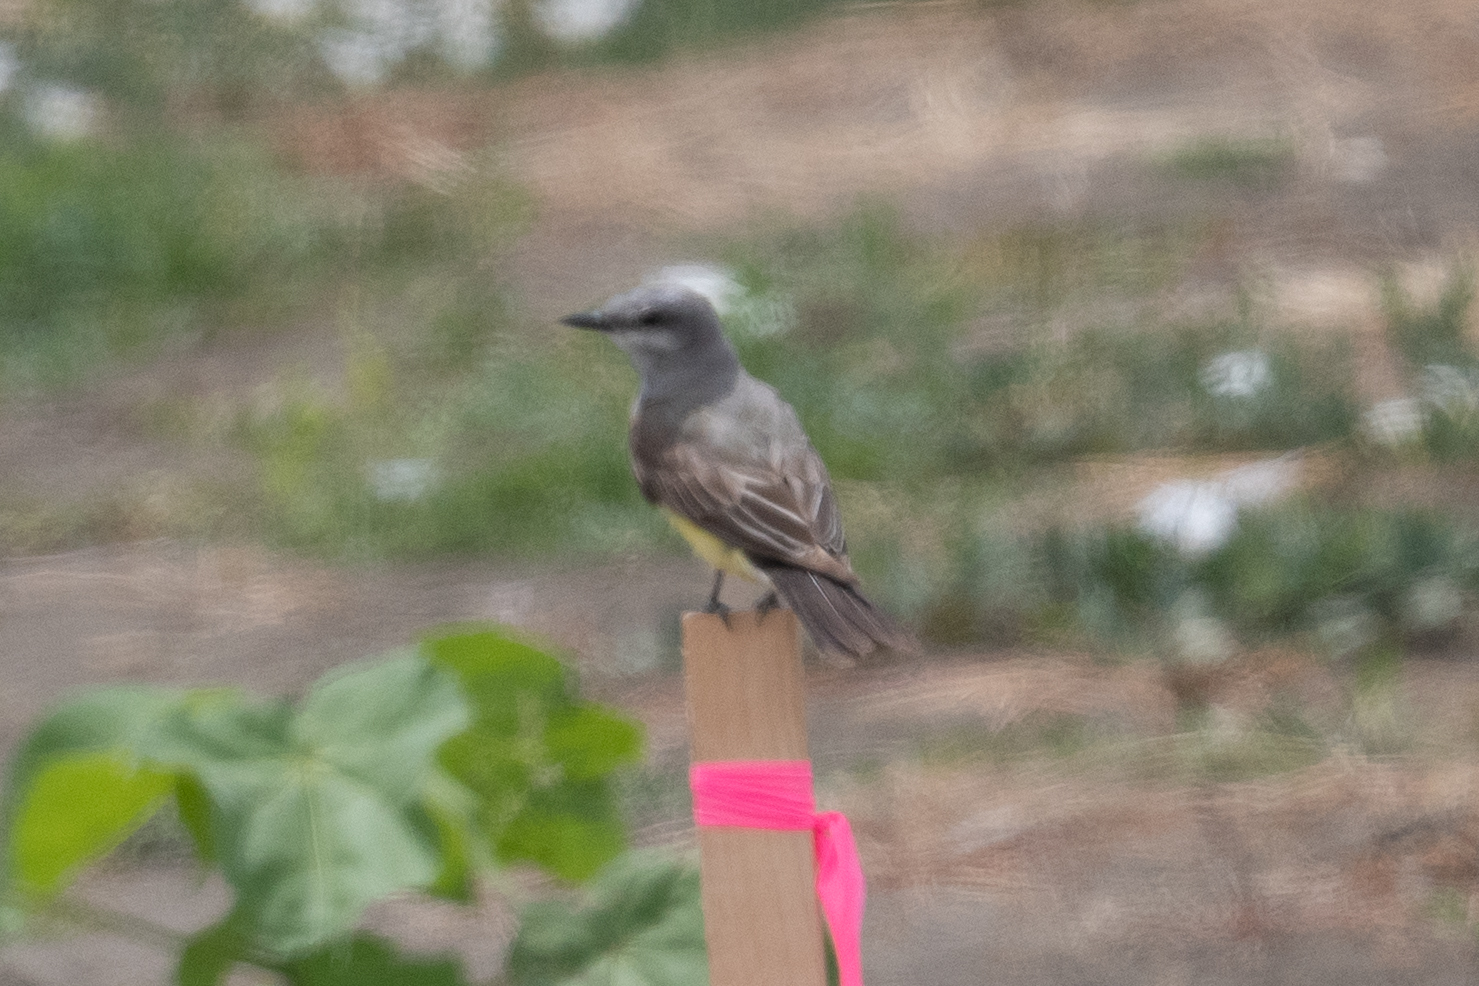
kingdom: Animalia
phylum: Chordata
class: Aves
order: Passeriformes
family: Tyrannidae
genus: Tyrannus
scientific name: Tyrannus verticalis
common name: Western kingbird
